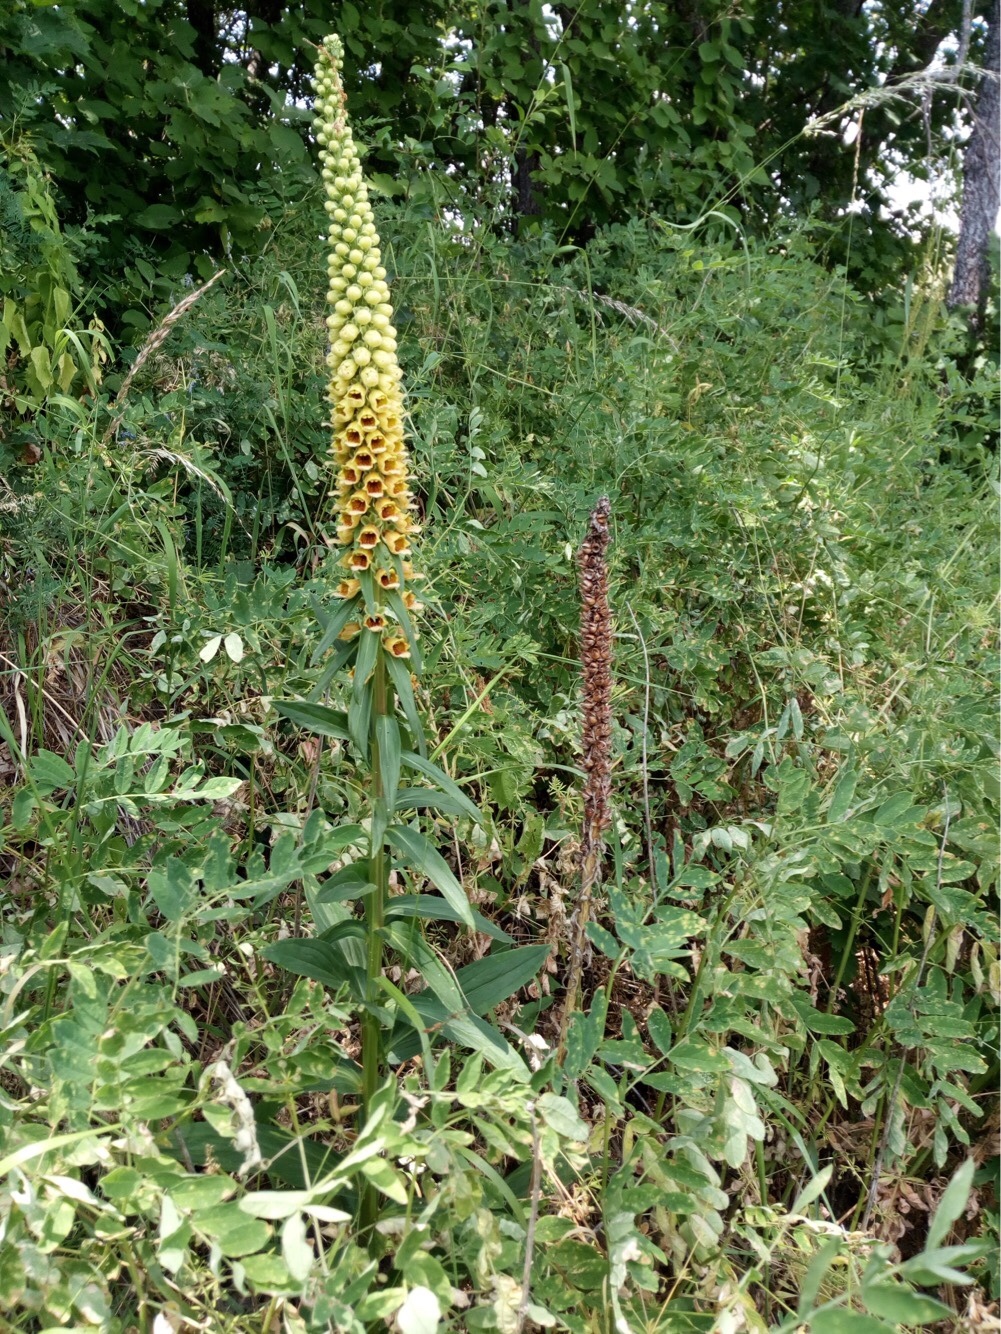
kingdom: Plantae
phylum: Tracheophyta
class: Magnoliopsida
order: Lamiales
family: Plantaginaceae
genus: Digitalis
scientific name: Digitalis ferruginea
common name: Rusty foxglove
